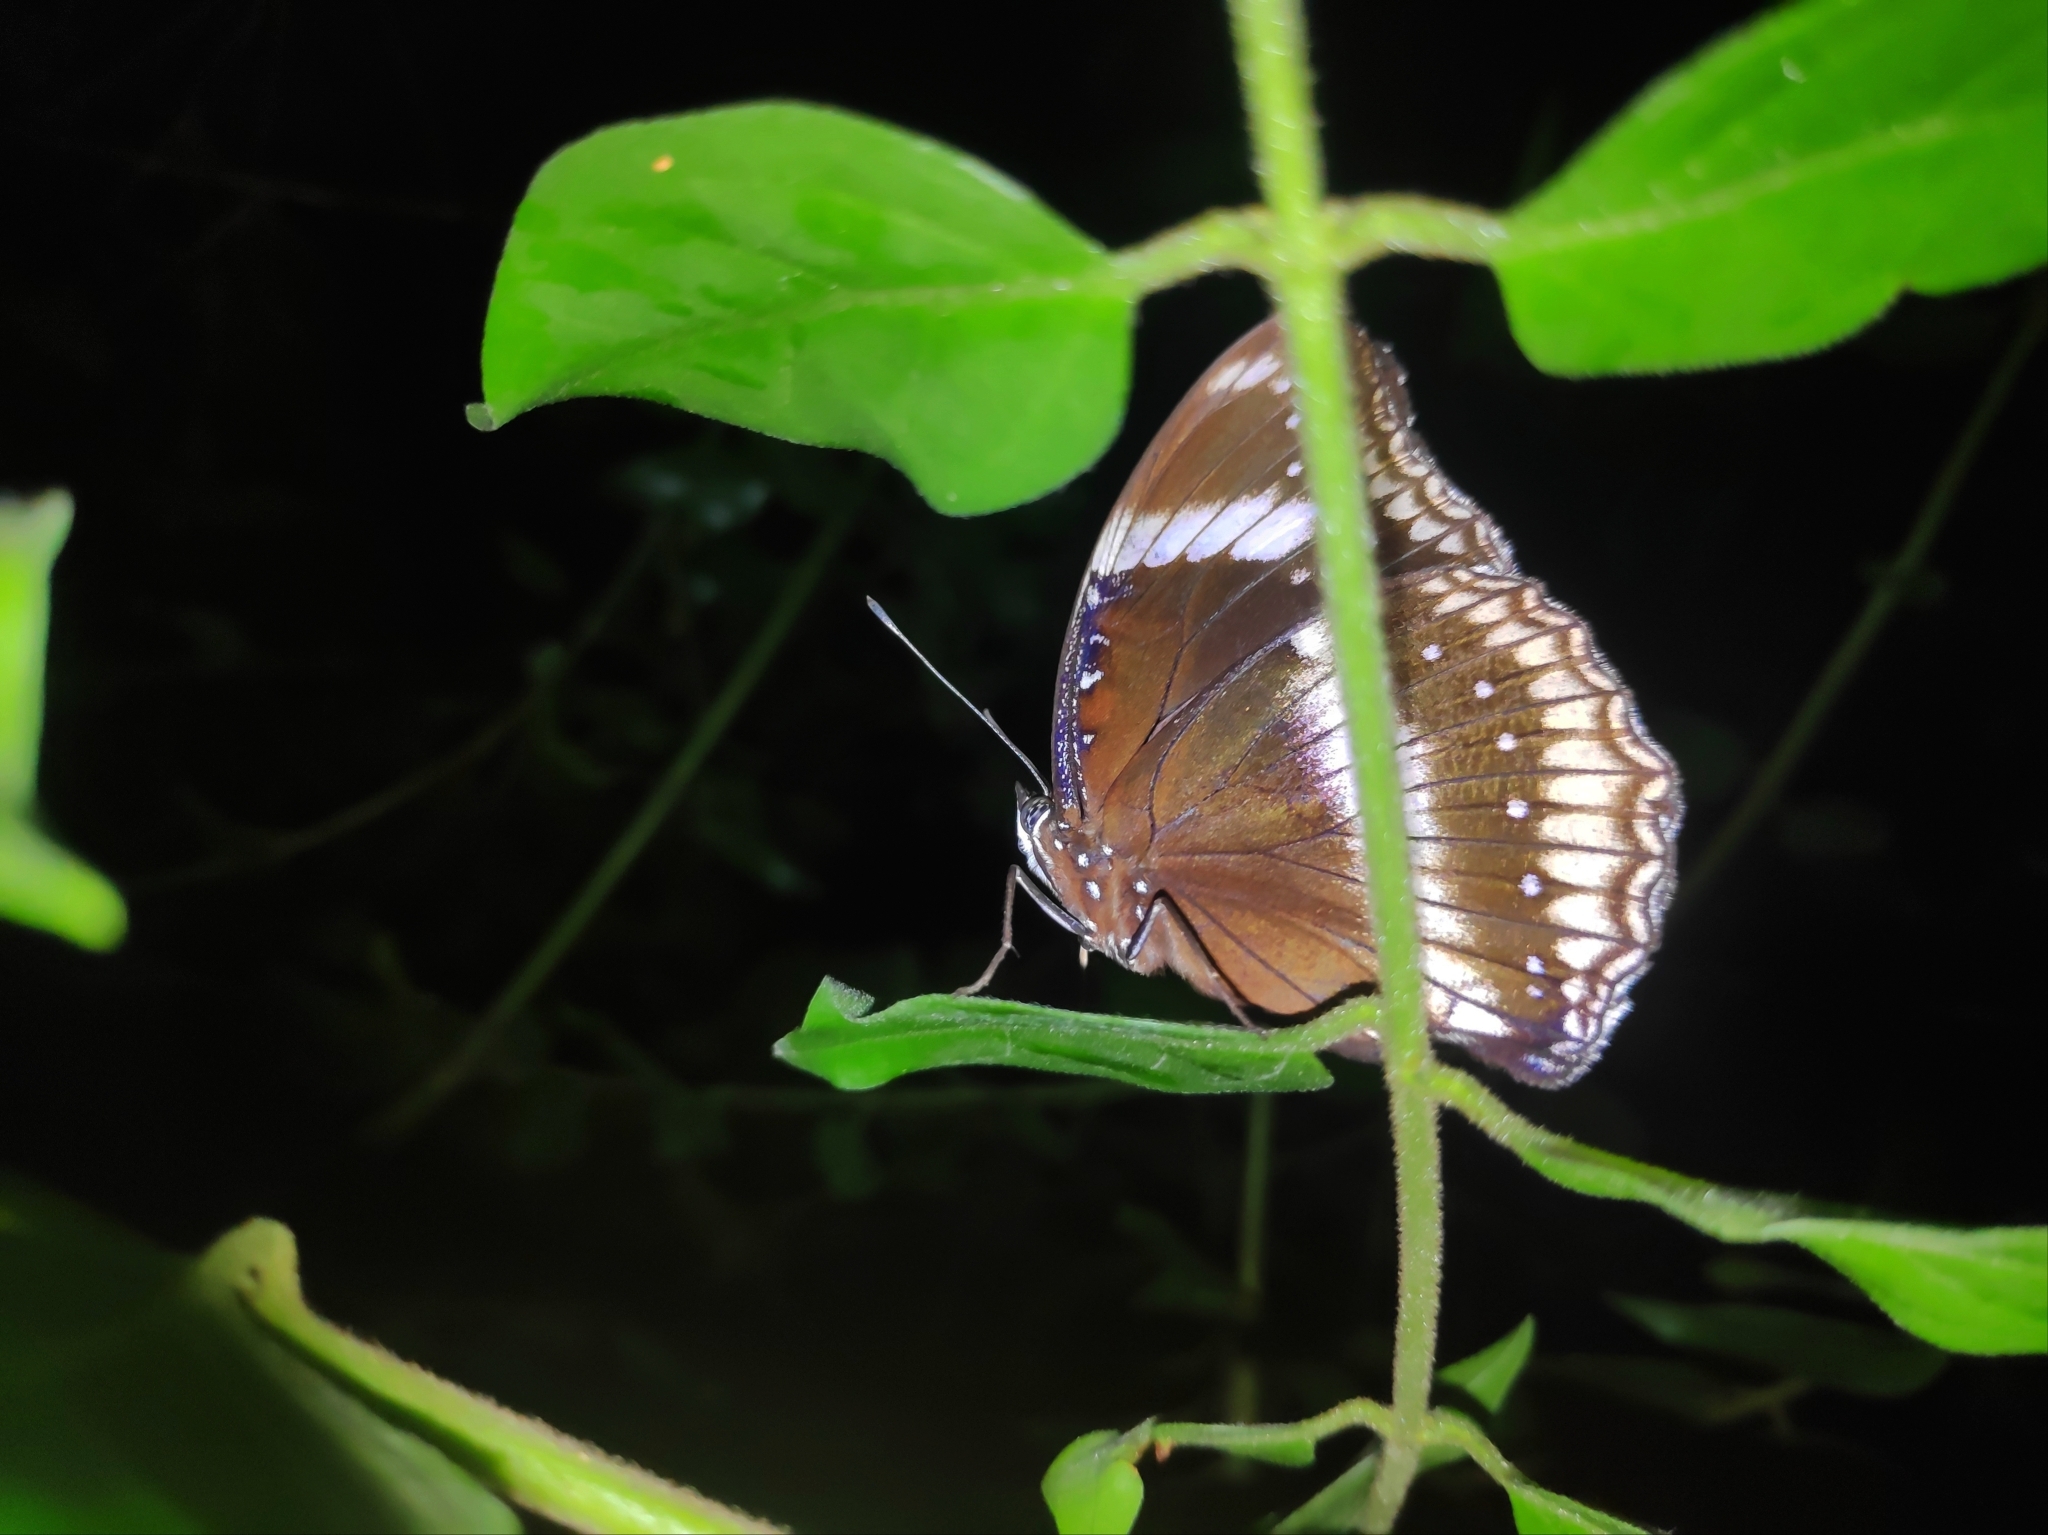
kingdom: Animalia
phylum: Arthropoda
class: Insecta
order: Lepidoptera
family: Nymphalidae
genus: Hypolimnas
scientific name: Hypolimnas bolina
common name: Great eggfly
